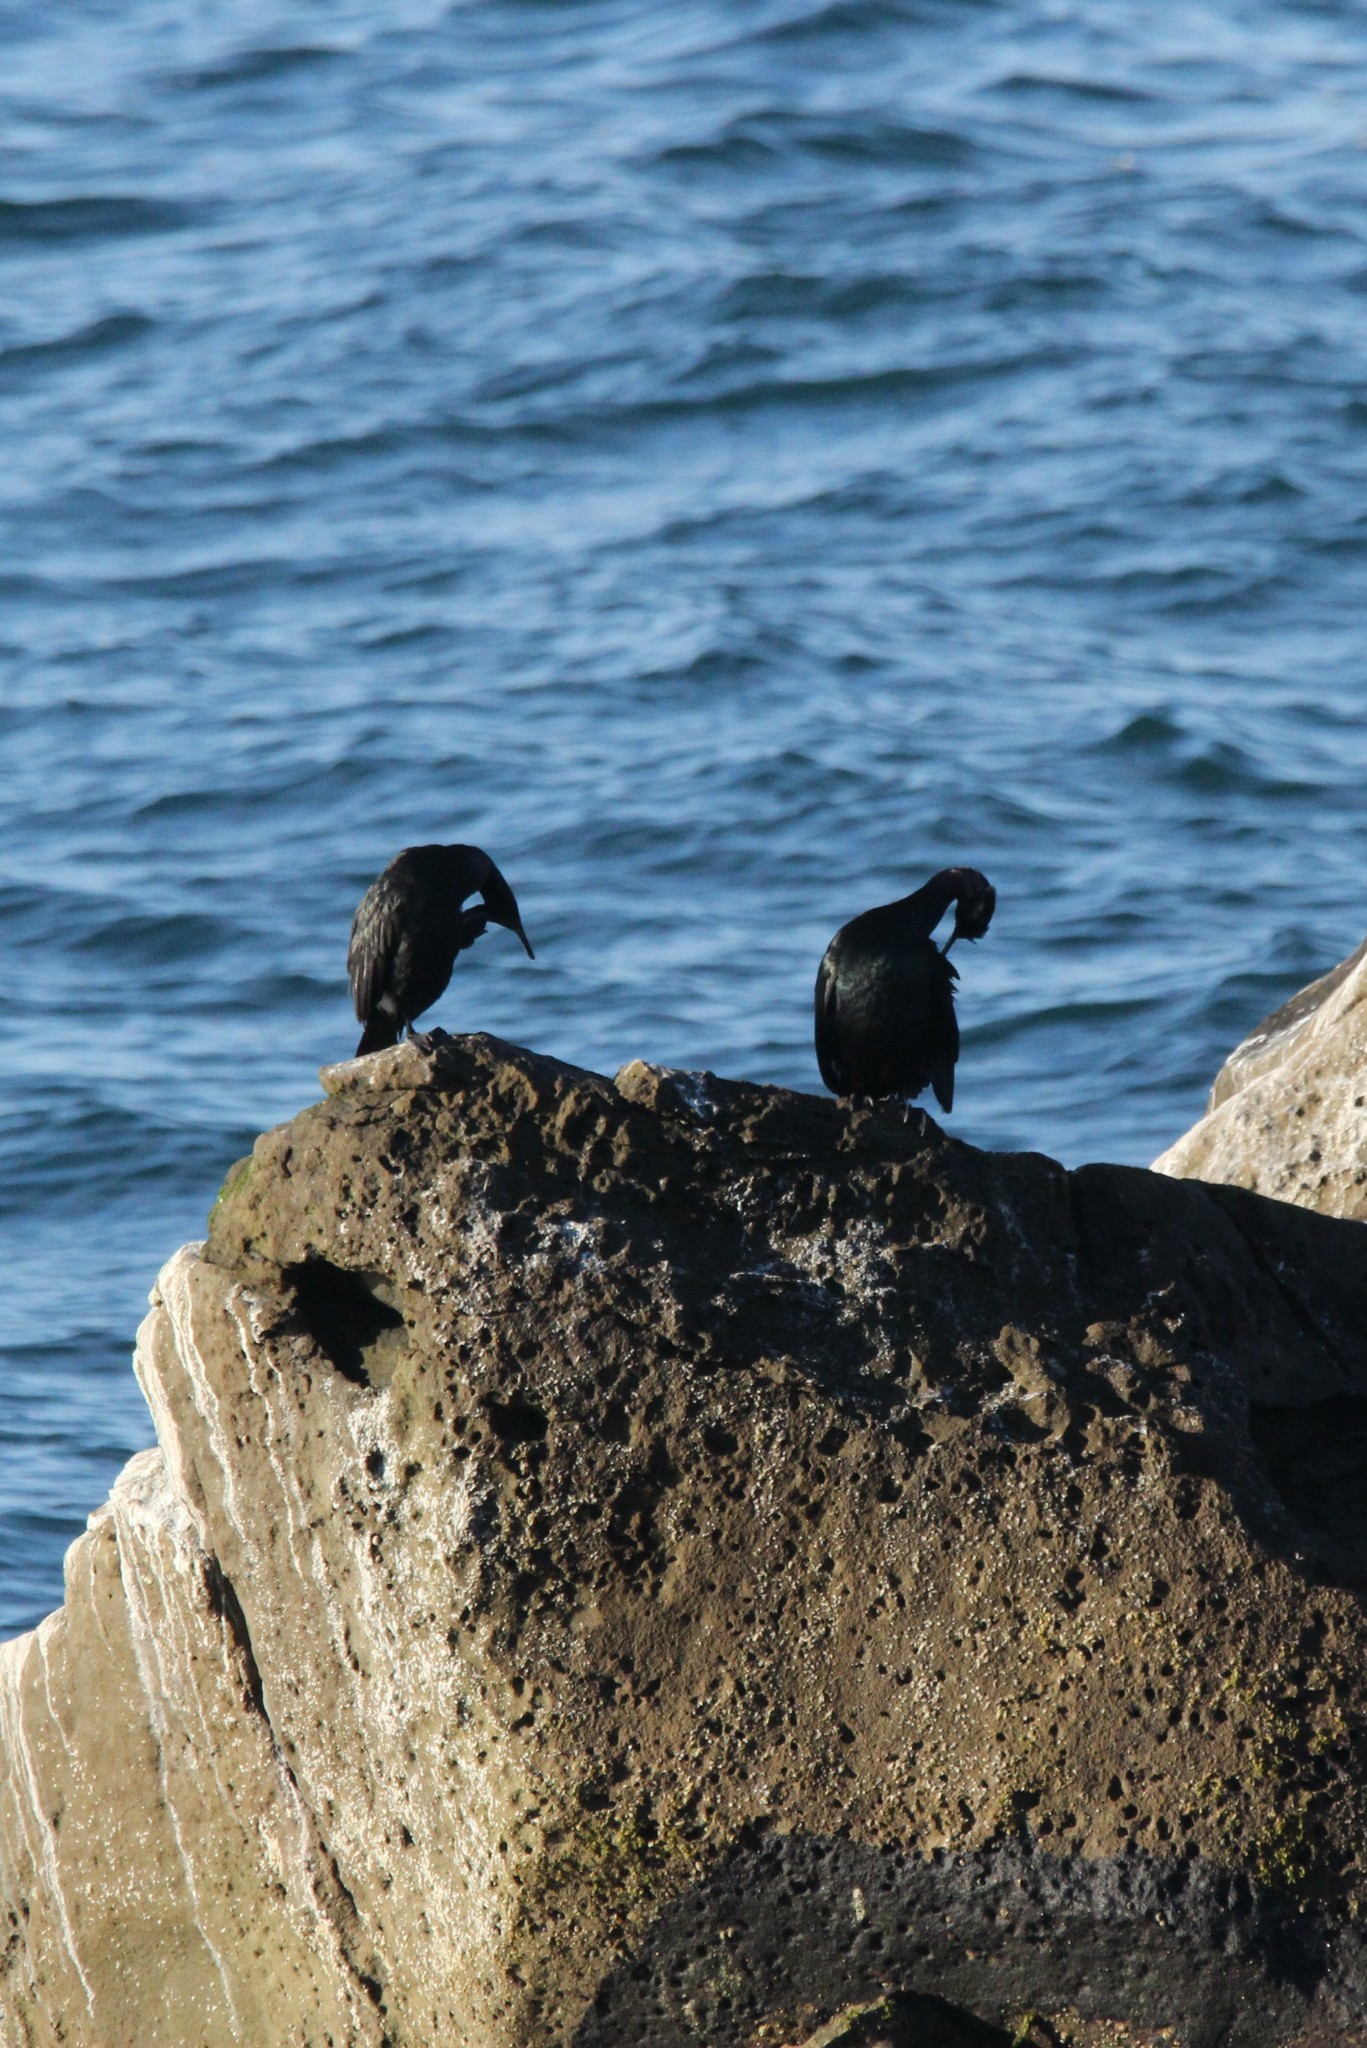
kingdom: Animalia
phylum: Chordata
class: Aves
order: Suliformes
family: Phalacrocoracidae
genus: Phalacrocorax
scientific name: Phalacrocorax pelagicus
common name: Pelagic cormorant
